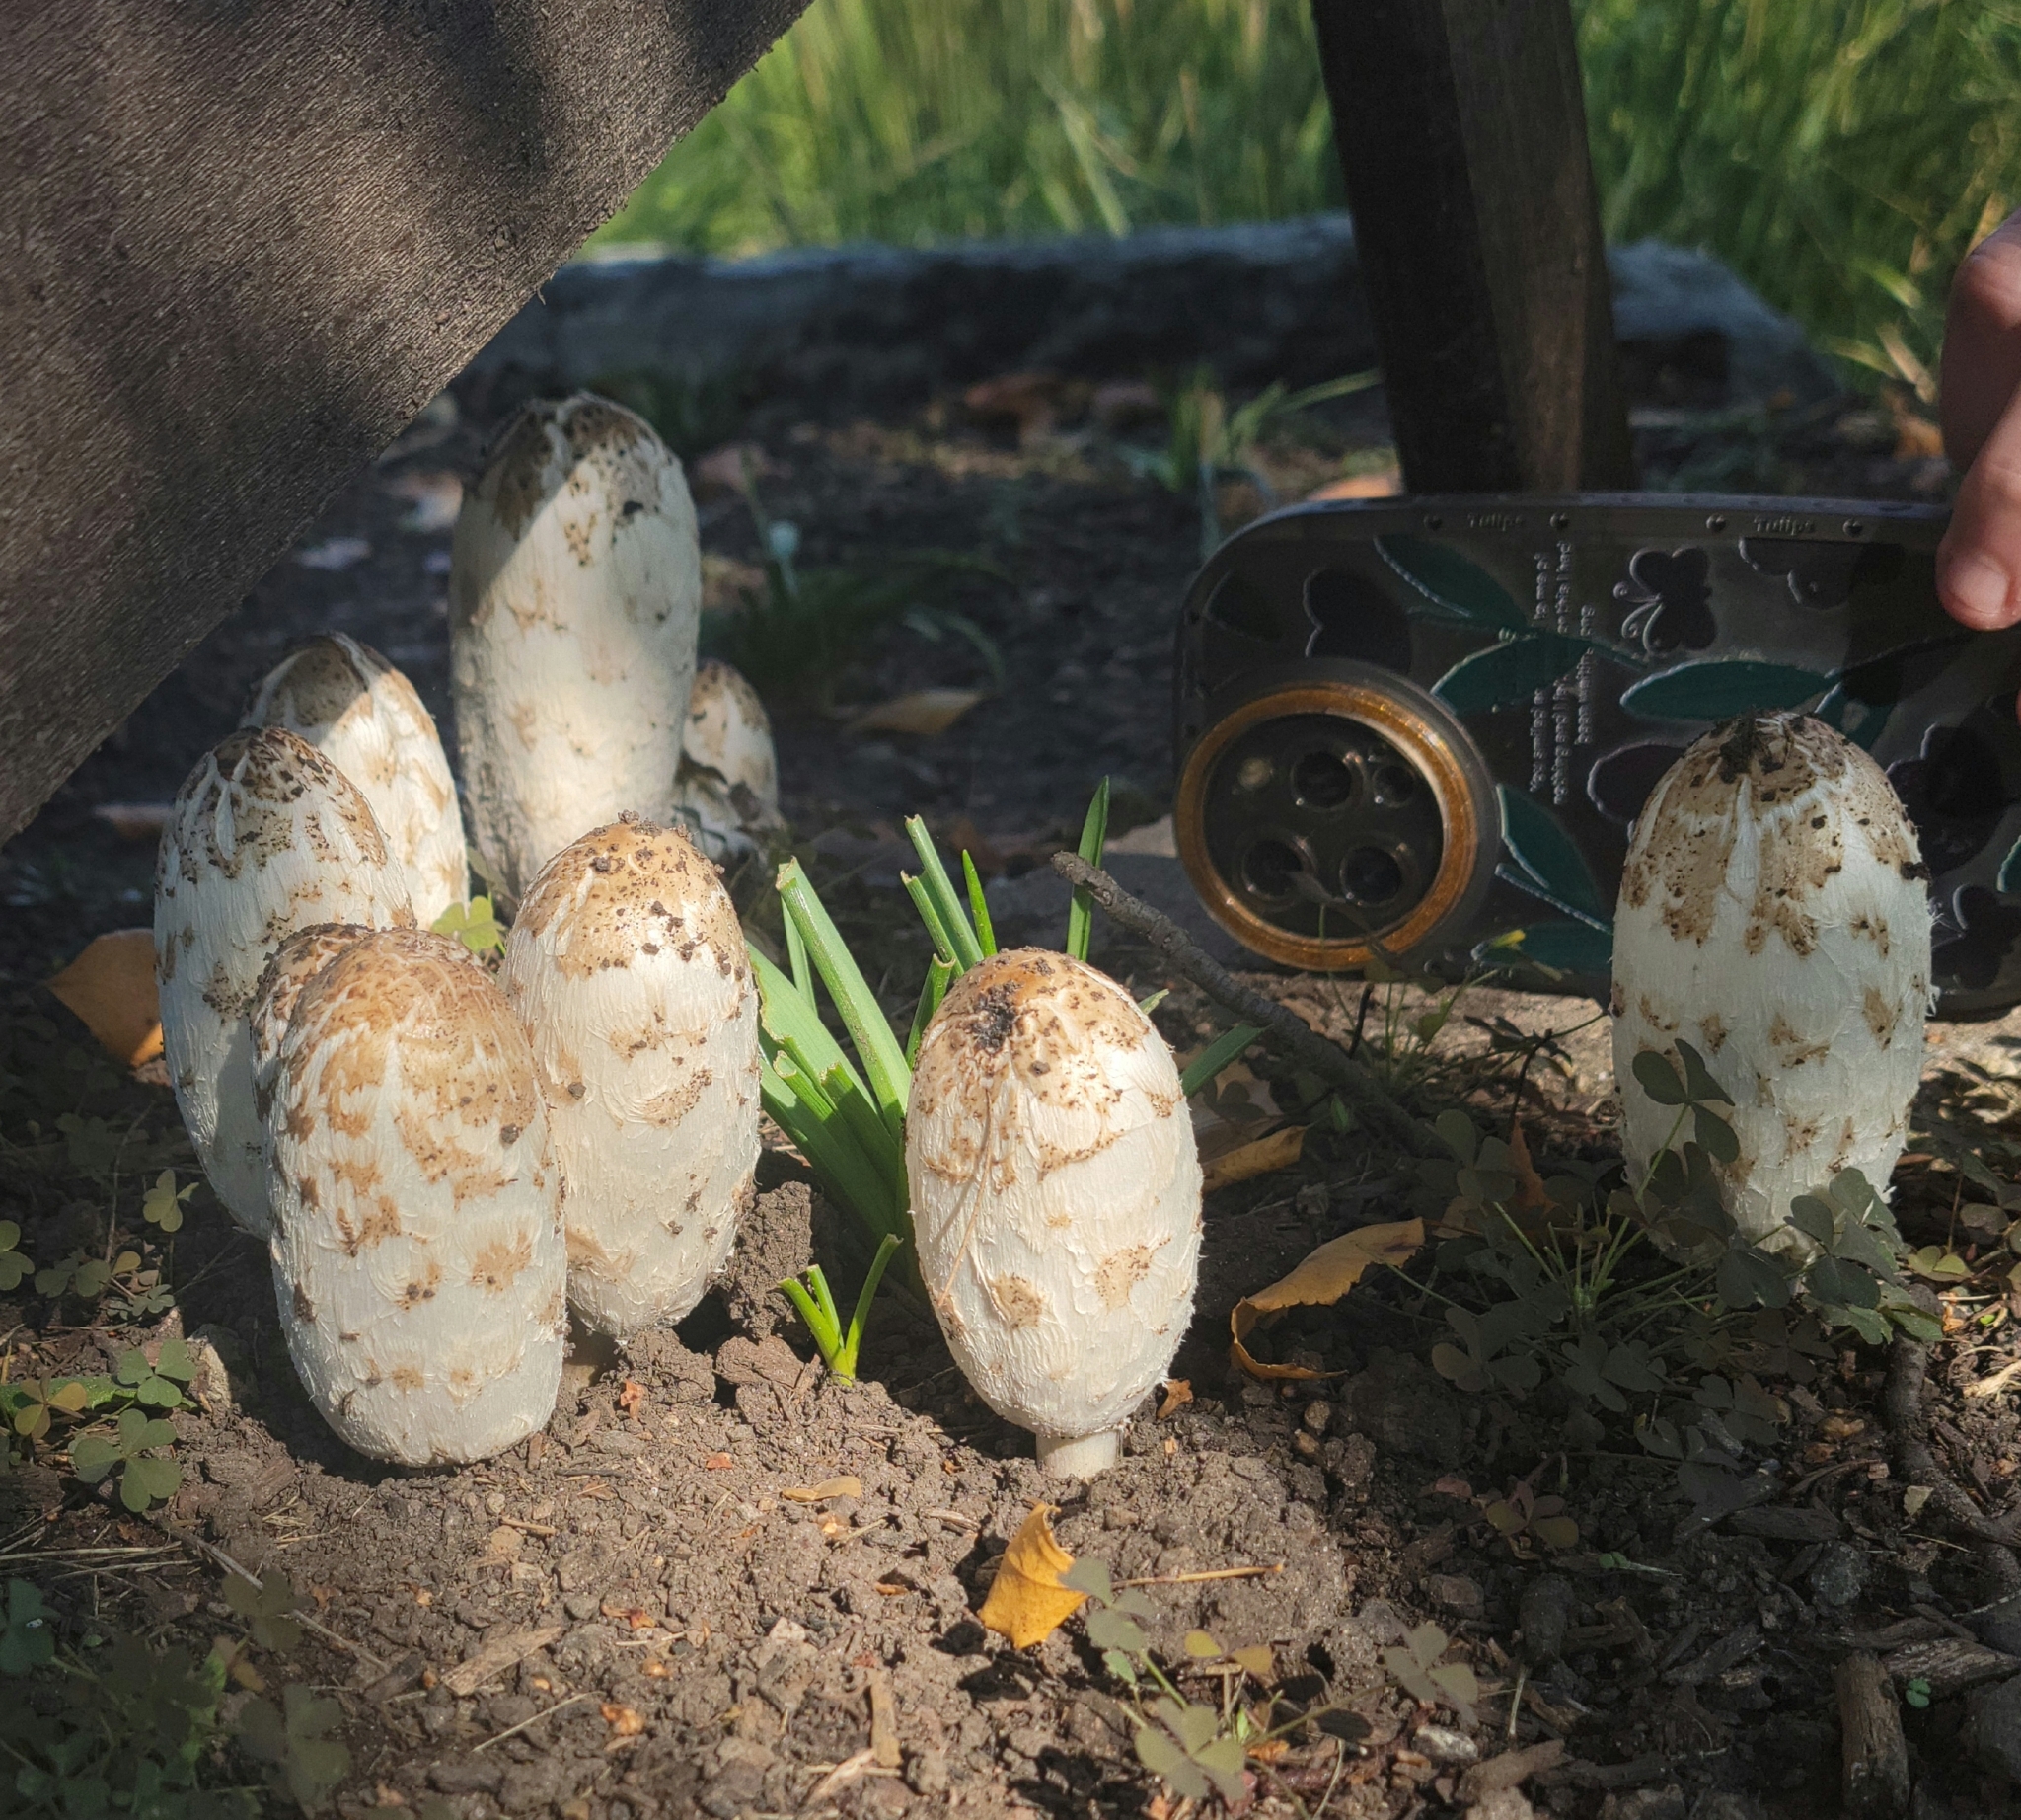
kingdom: Fungi
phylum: Basidiomycota
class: Agaricomycetes
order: Agaricales
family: Agaricaceae
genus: Coprinus
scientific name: Coprinus comatus
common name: Lawyer's wig
